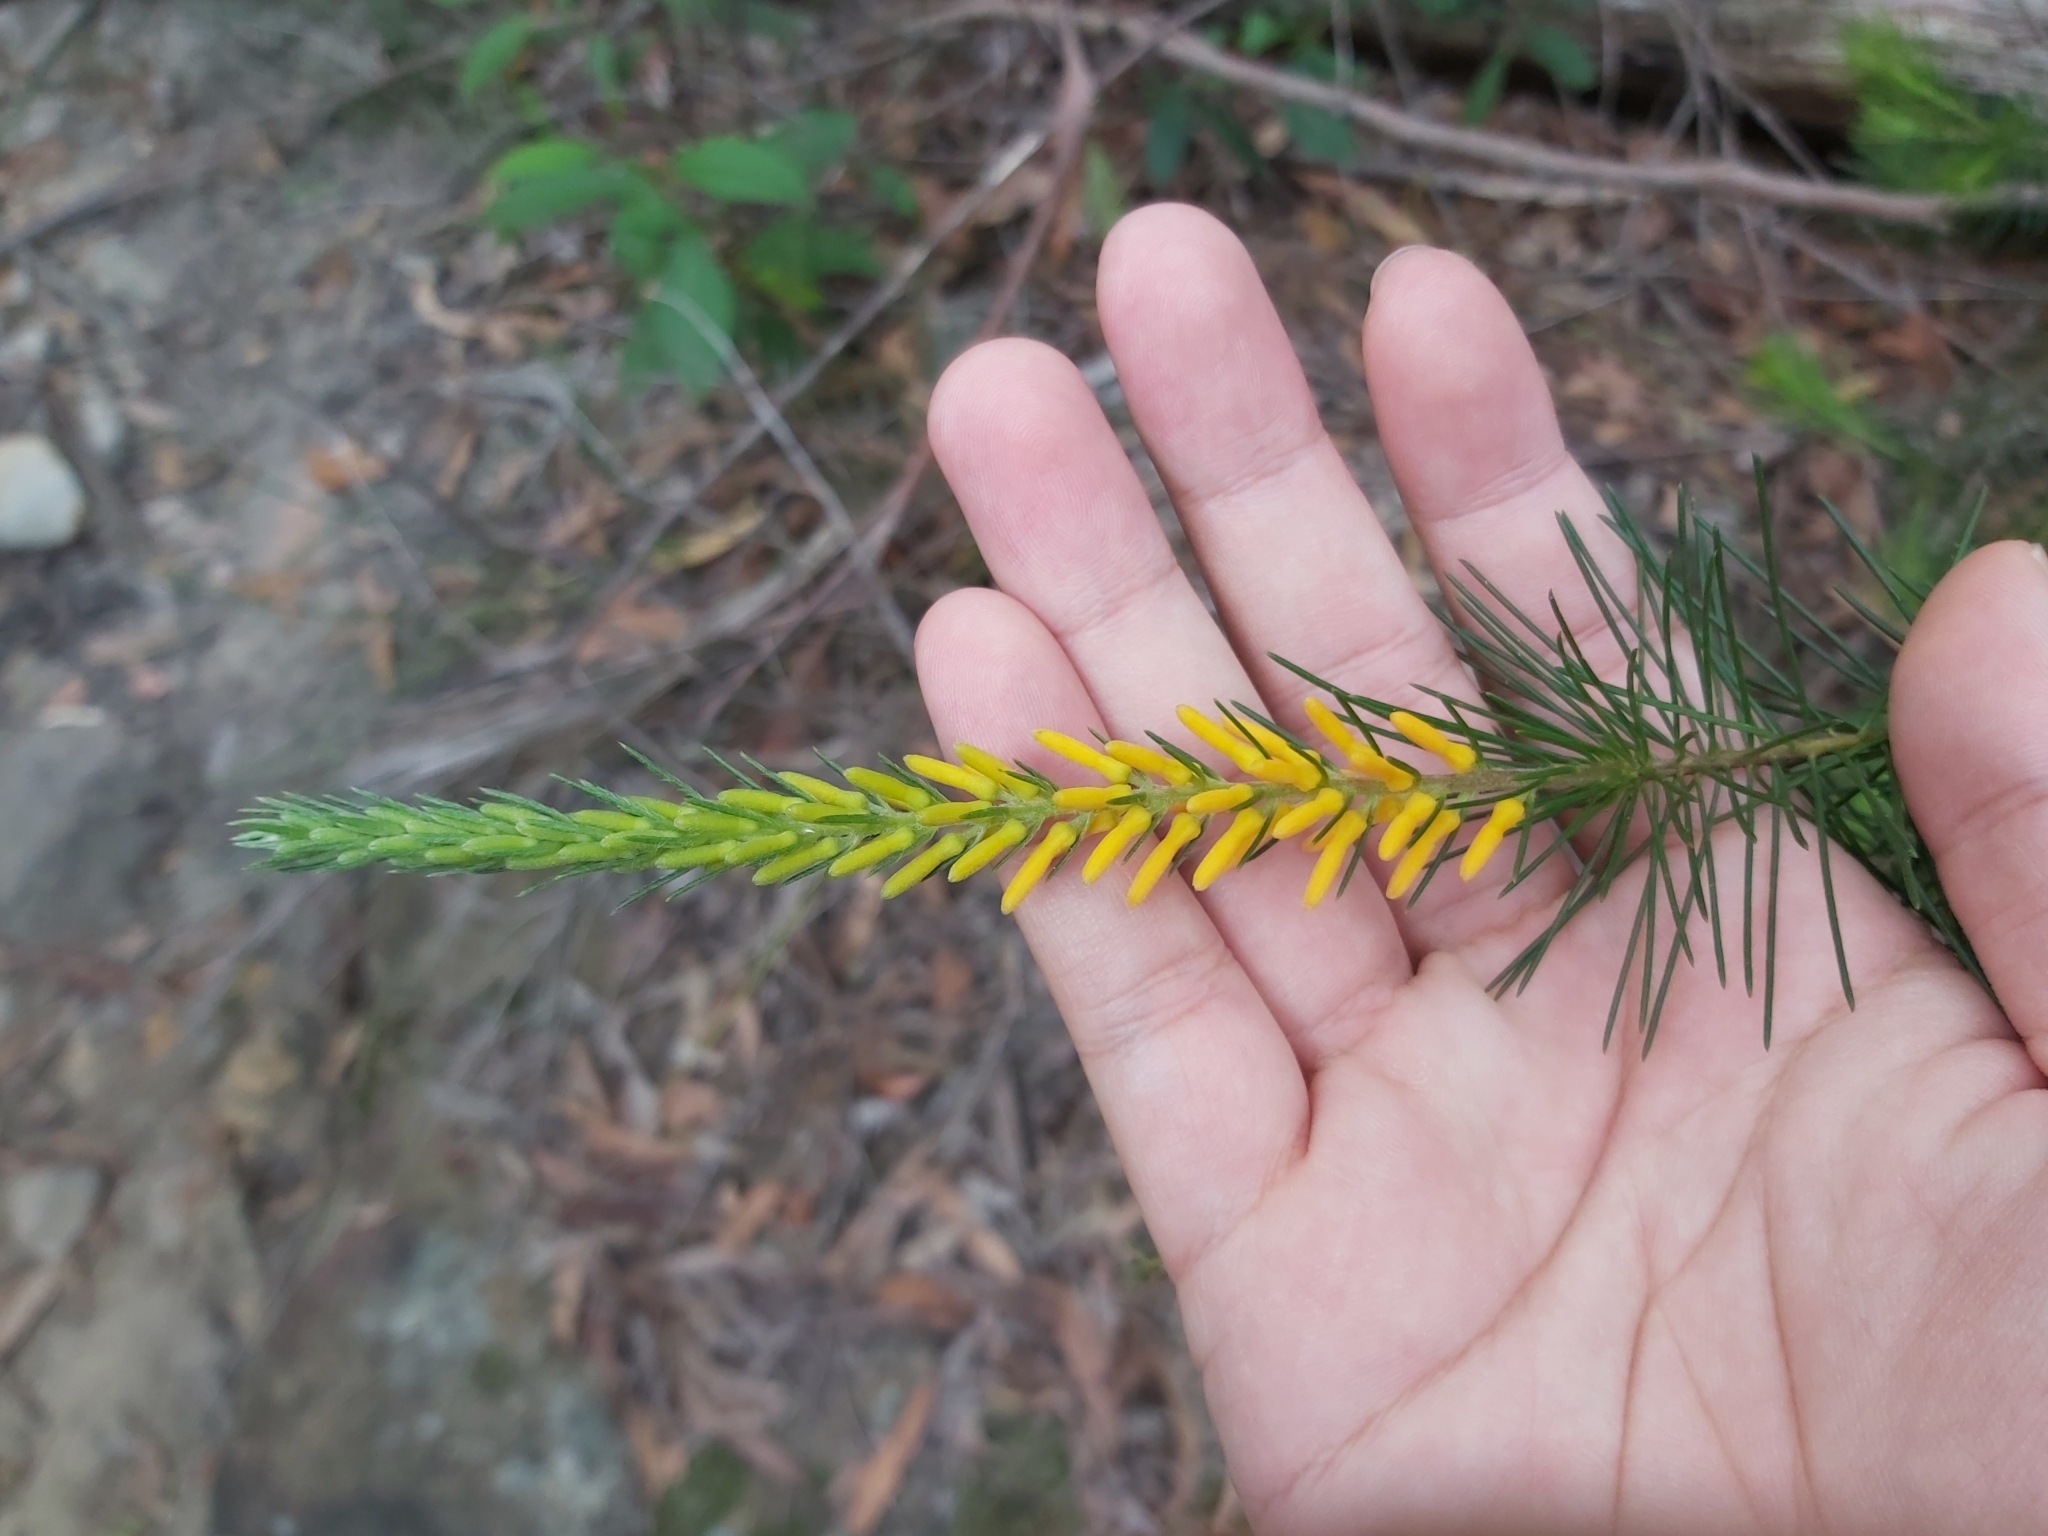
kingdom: Plantae
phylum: Tracheophyta
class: Magnoliopsida
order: Proteales
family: Proteaceae
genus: Persoonia
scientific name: Persoonia pinifolia
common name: Pine-leaf geebung
